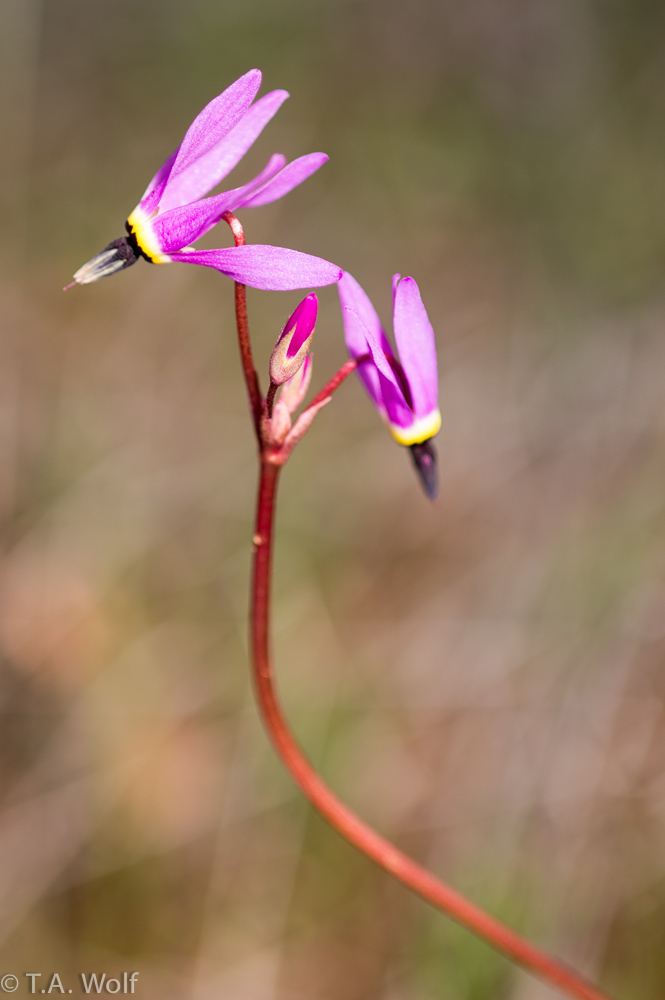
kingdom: Plantae
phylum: Tracheophyta
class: Magnoliopsida
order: Ericales
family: Primulaceae
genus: Dodecatheon
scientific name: Dodecatheon hendersonii
